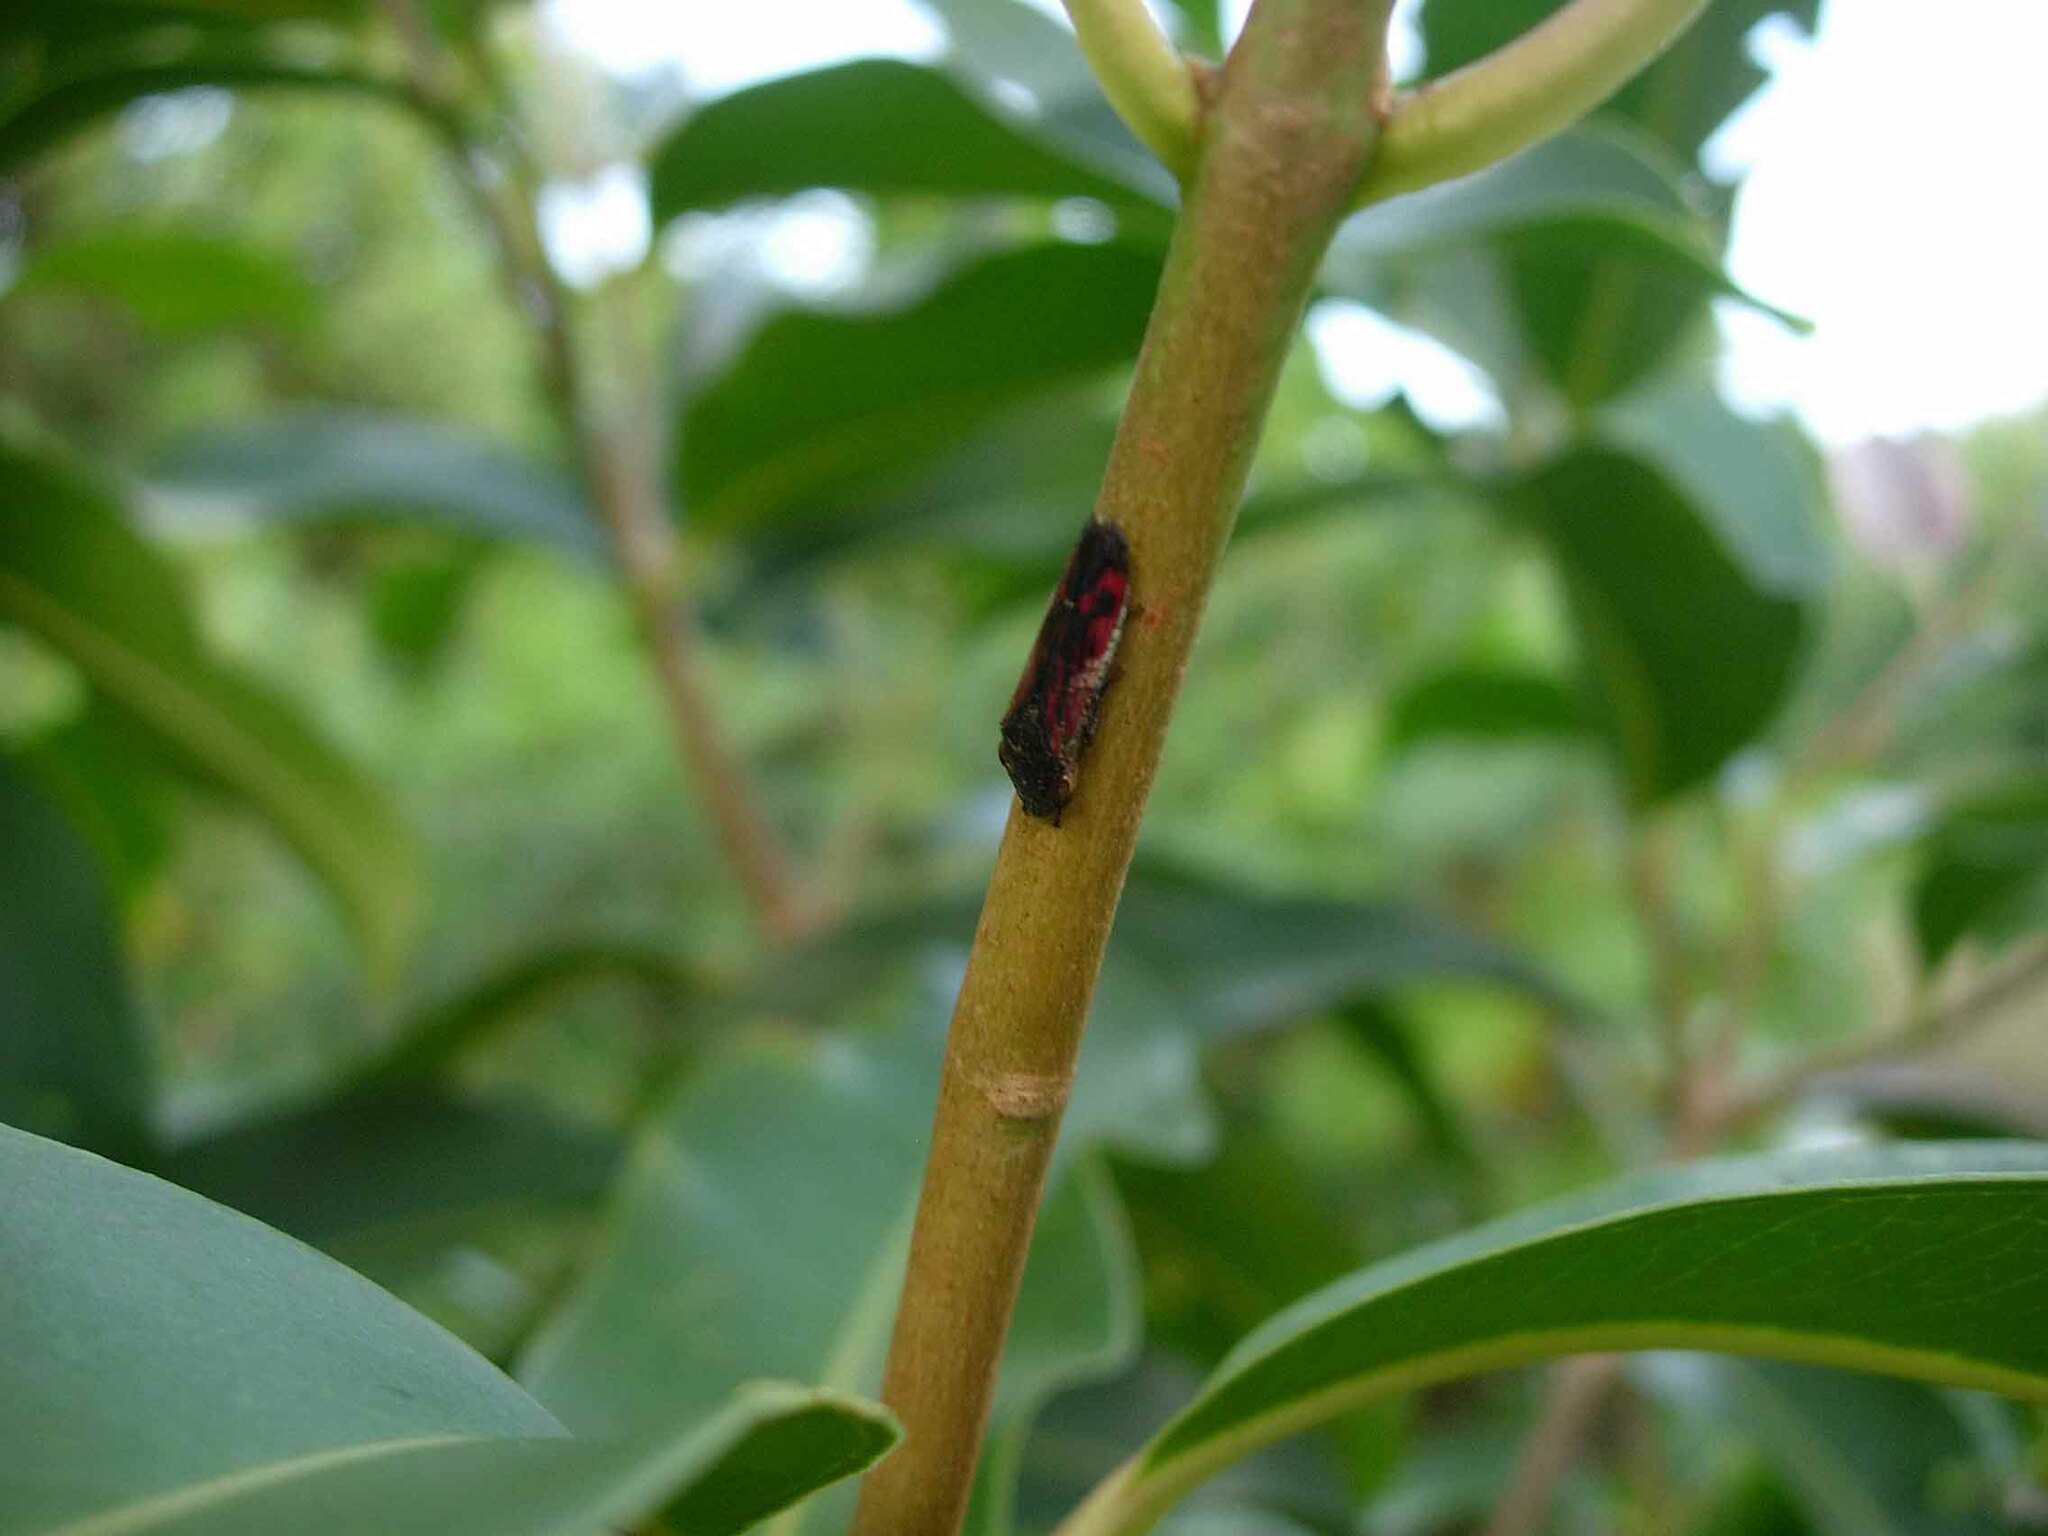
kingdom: Animalia
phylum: Arthropoda
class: Insecta
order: Hemiptera
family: Cicadellidae
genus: Homalodisca
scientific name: Homalodisca vitripennis
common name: Glassy-winged sharpshooter
